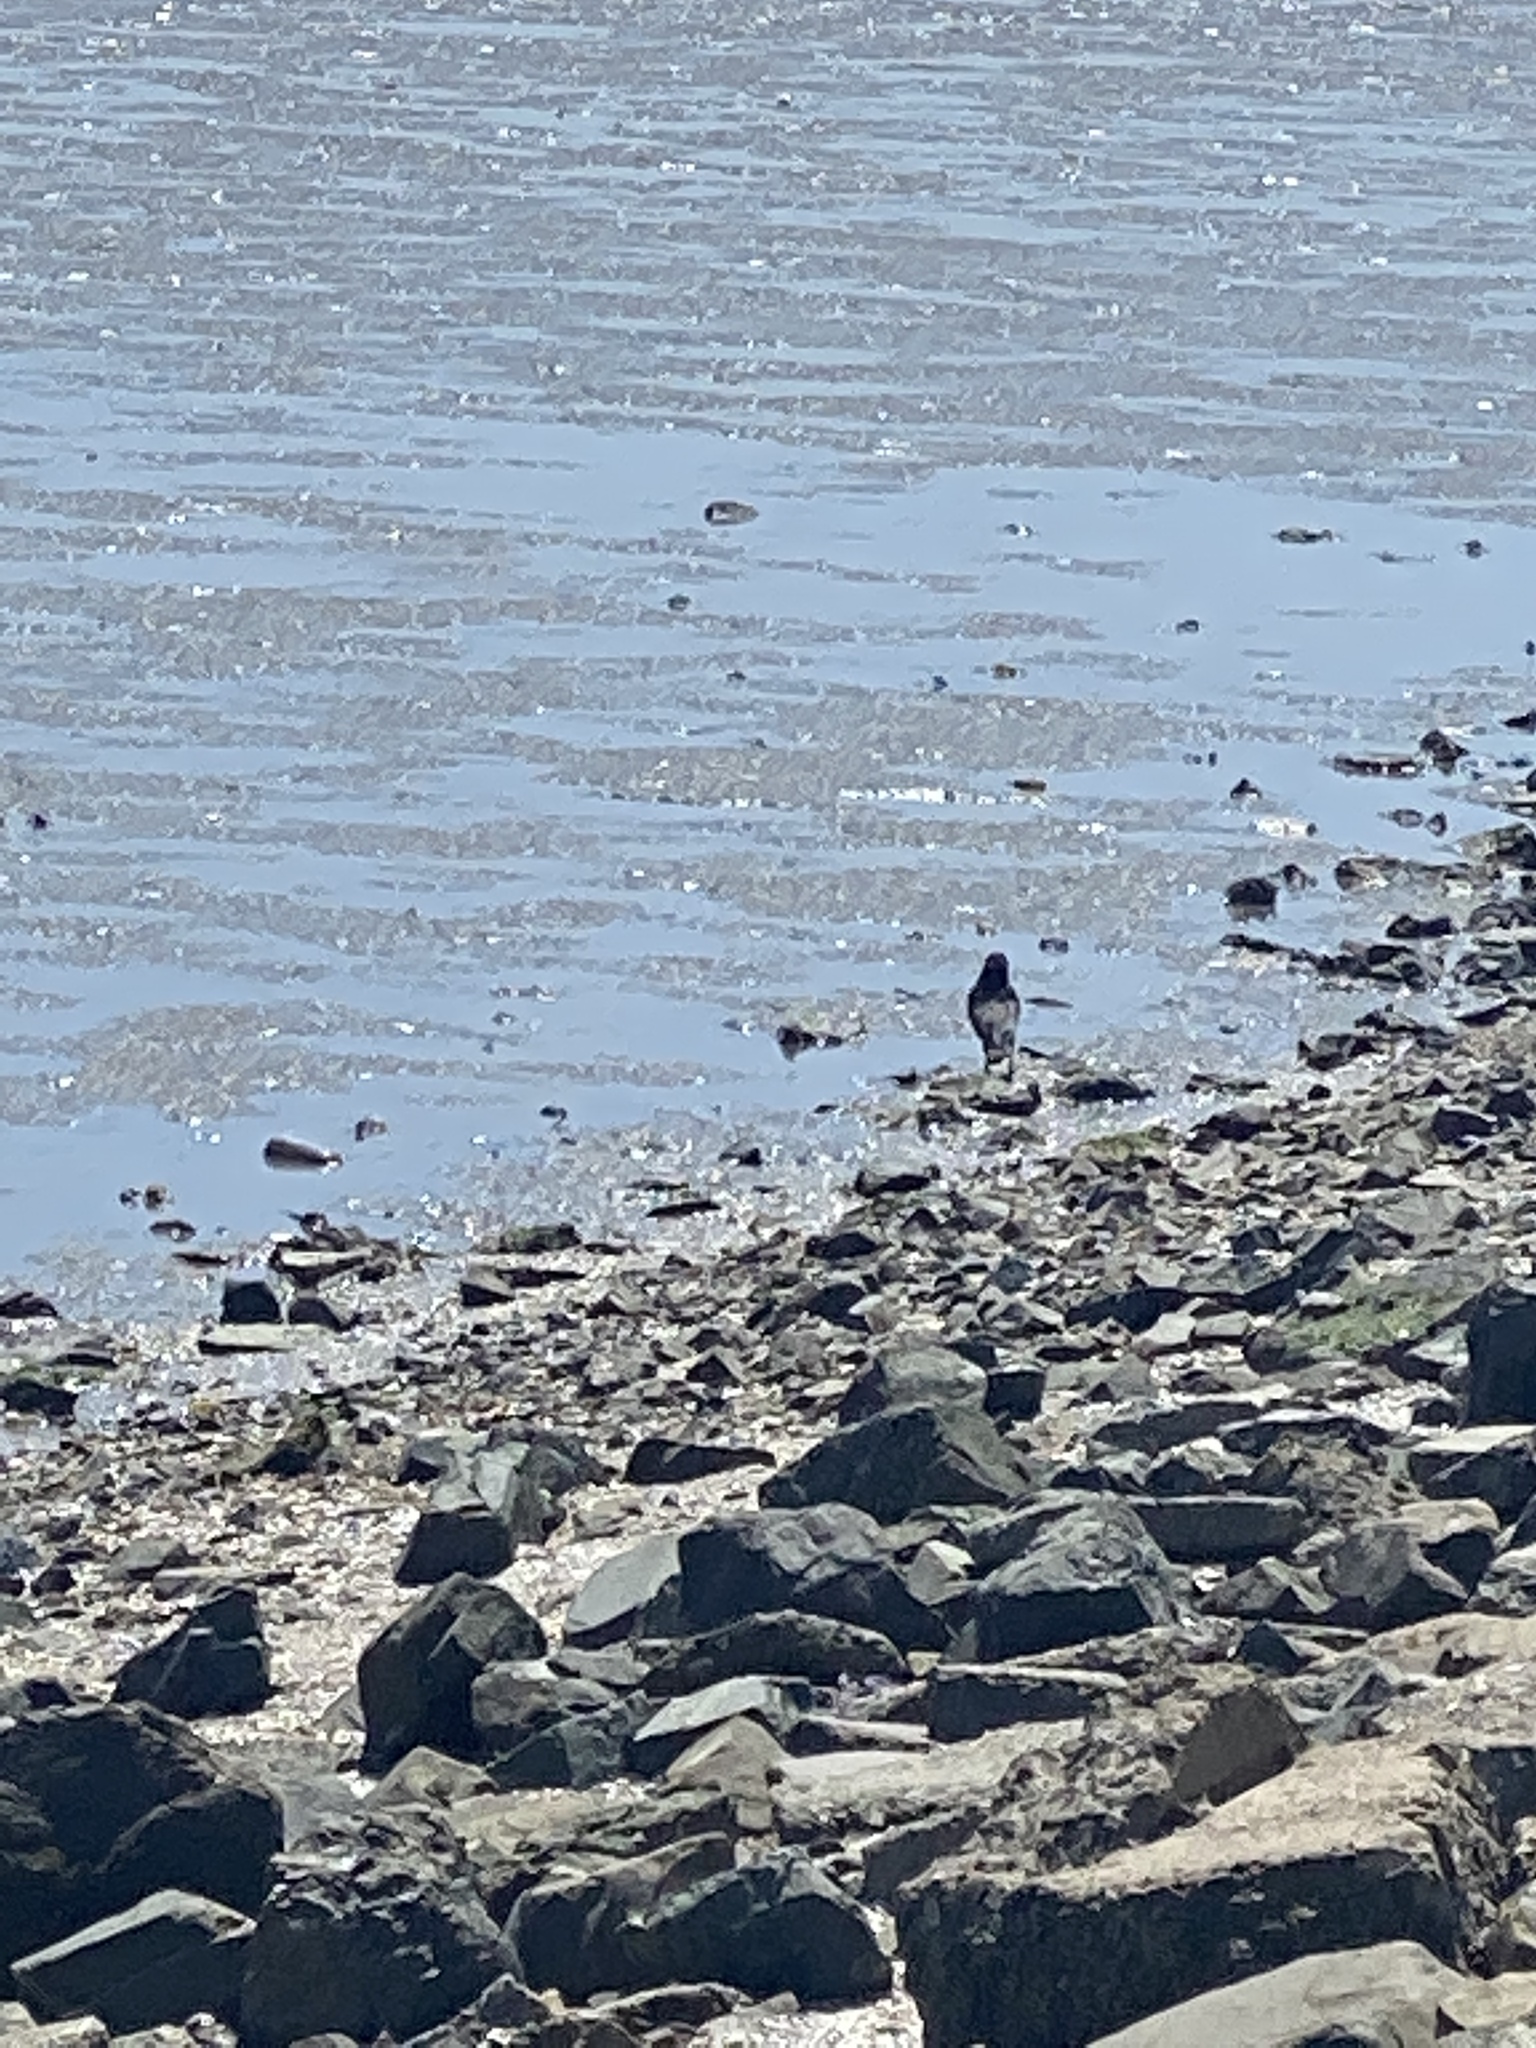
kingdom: Animalia
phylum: Chordata
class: Aves
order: Passeriformes
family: Corvidae
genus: Corvus
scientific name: Corvus brachyrhynchos
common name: American crow
